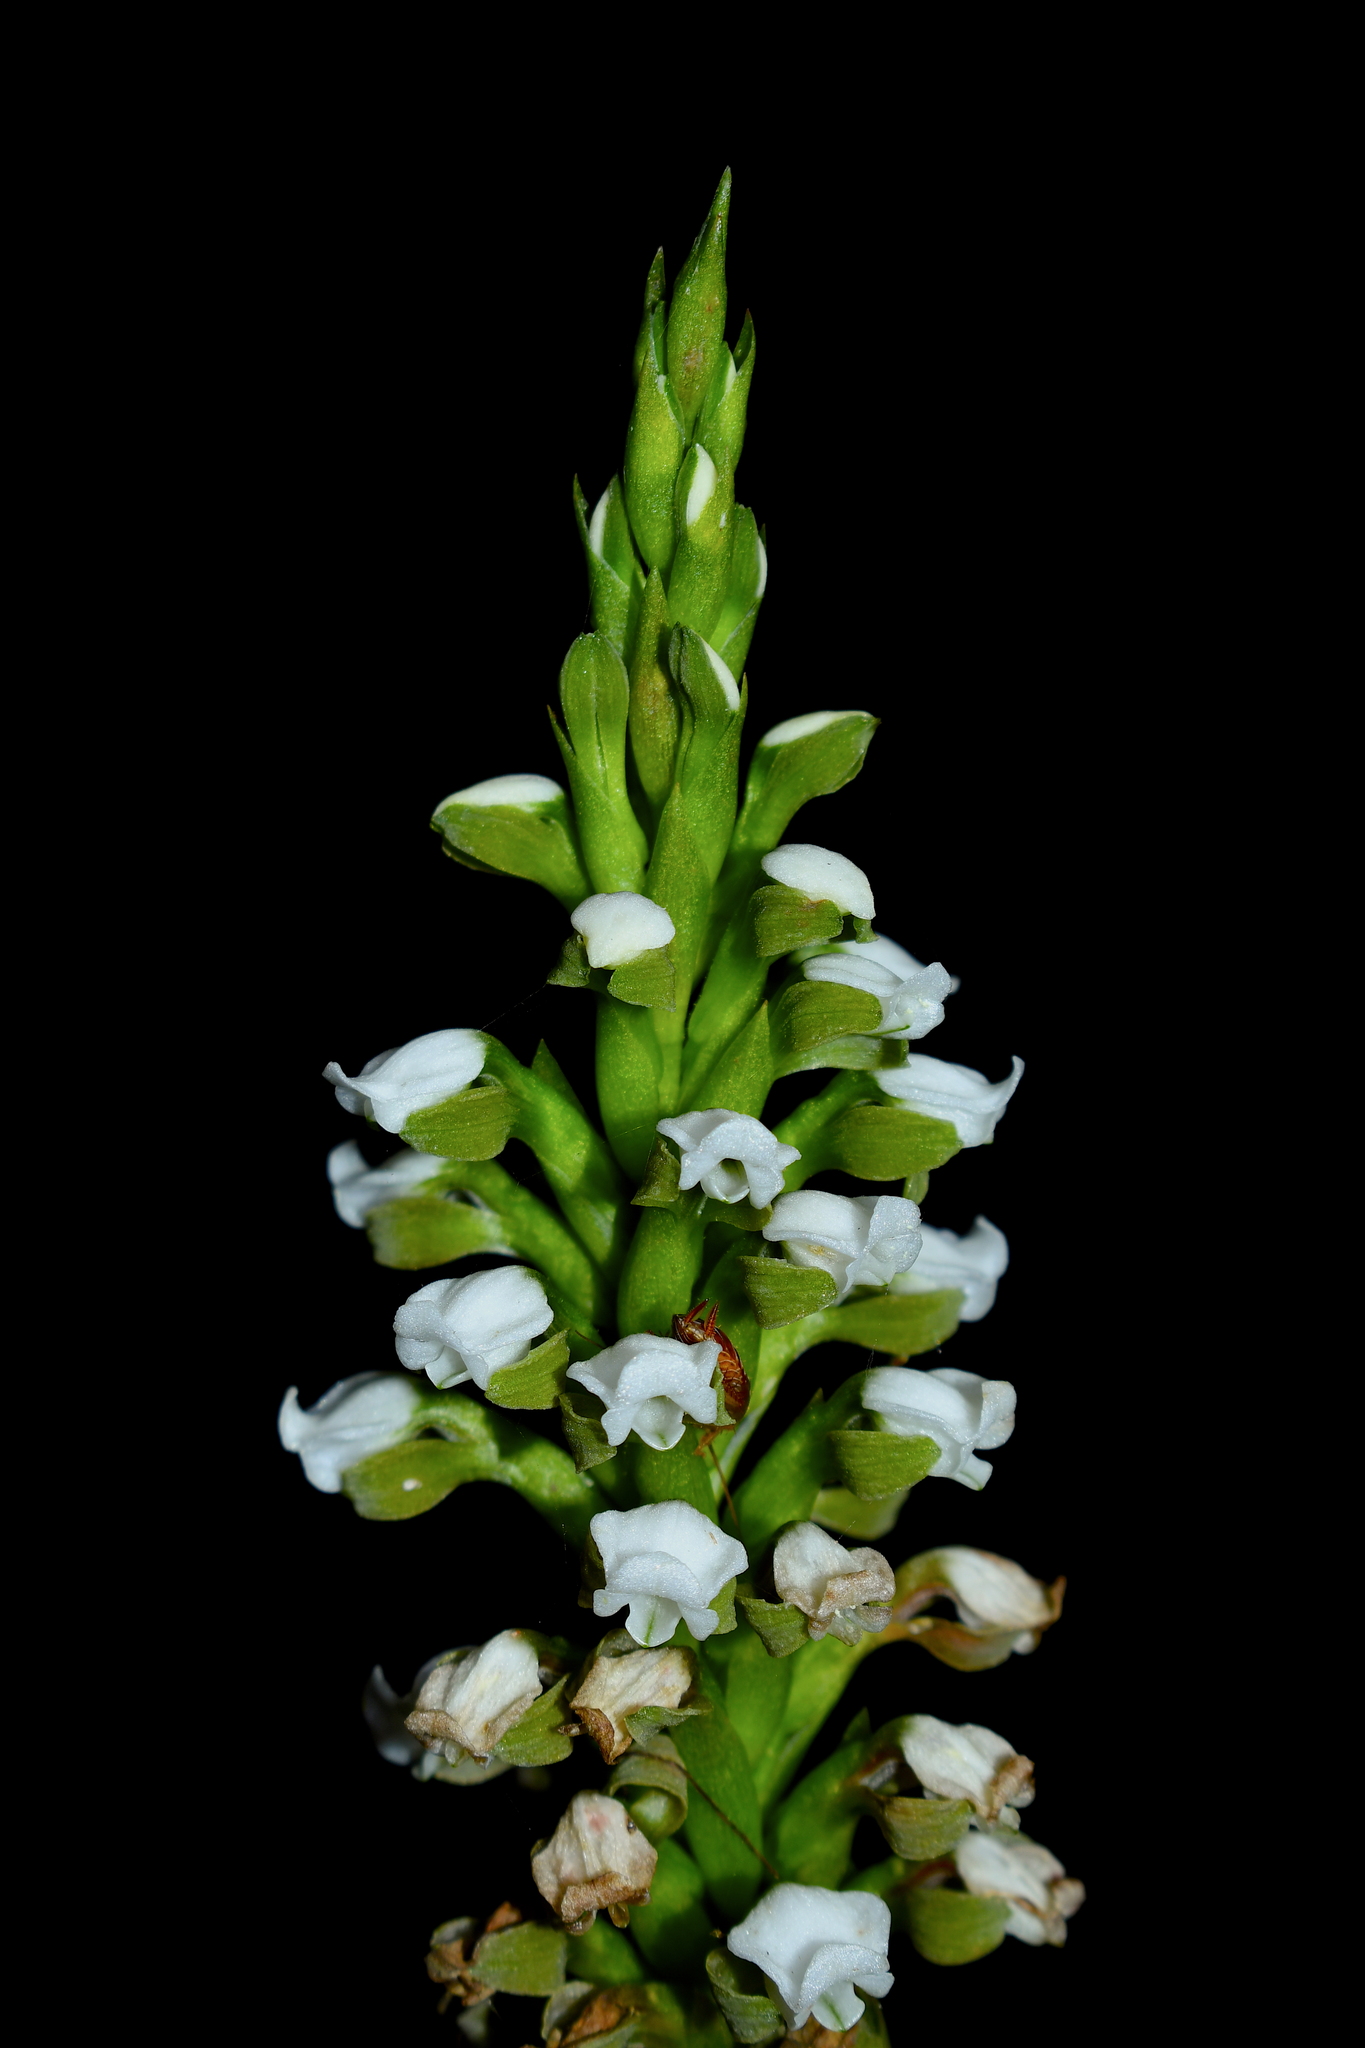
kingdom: Plantae
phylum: Tracheophyta
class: Liliopsida
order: Asparagales
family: Orchidaceae
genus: Aulosepalum
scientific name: Aulosepalum hemichrea
